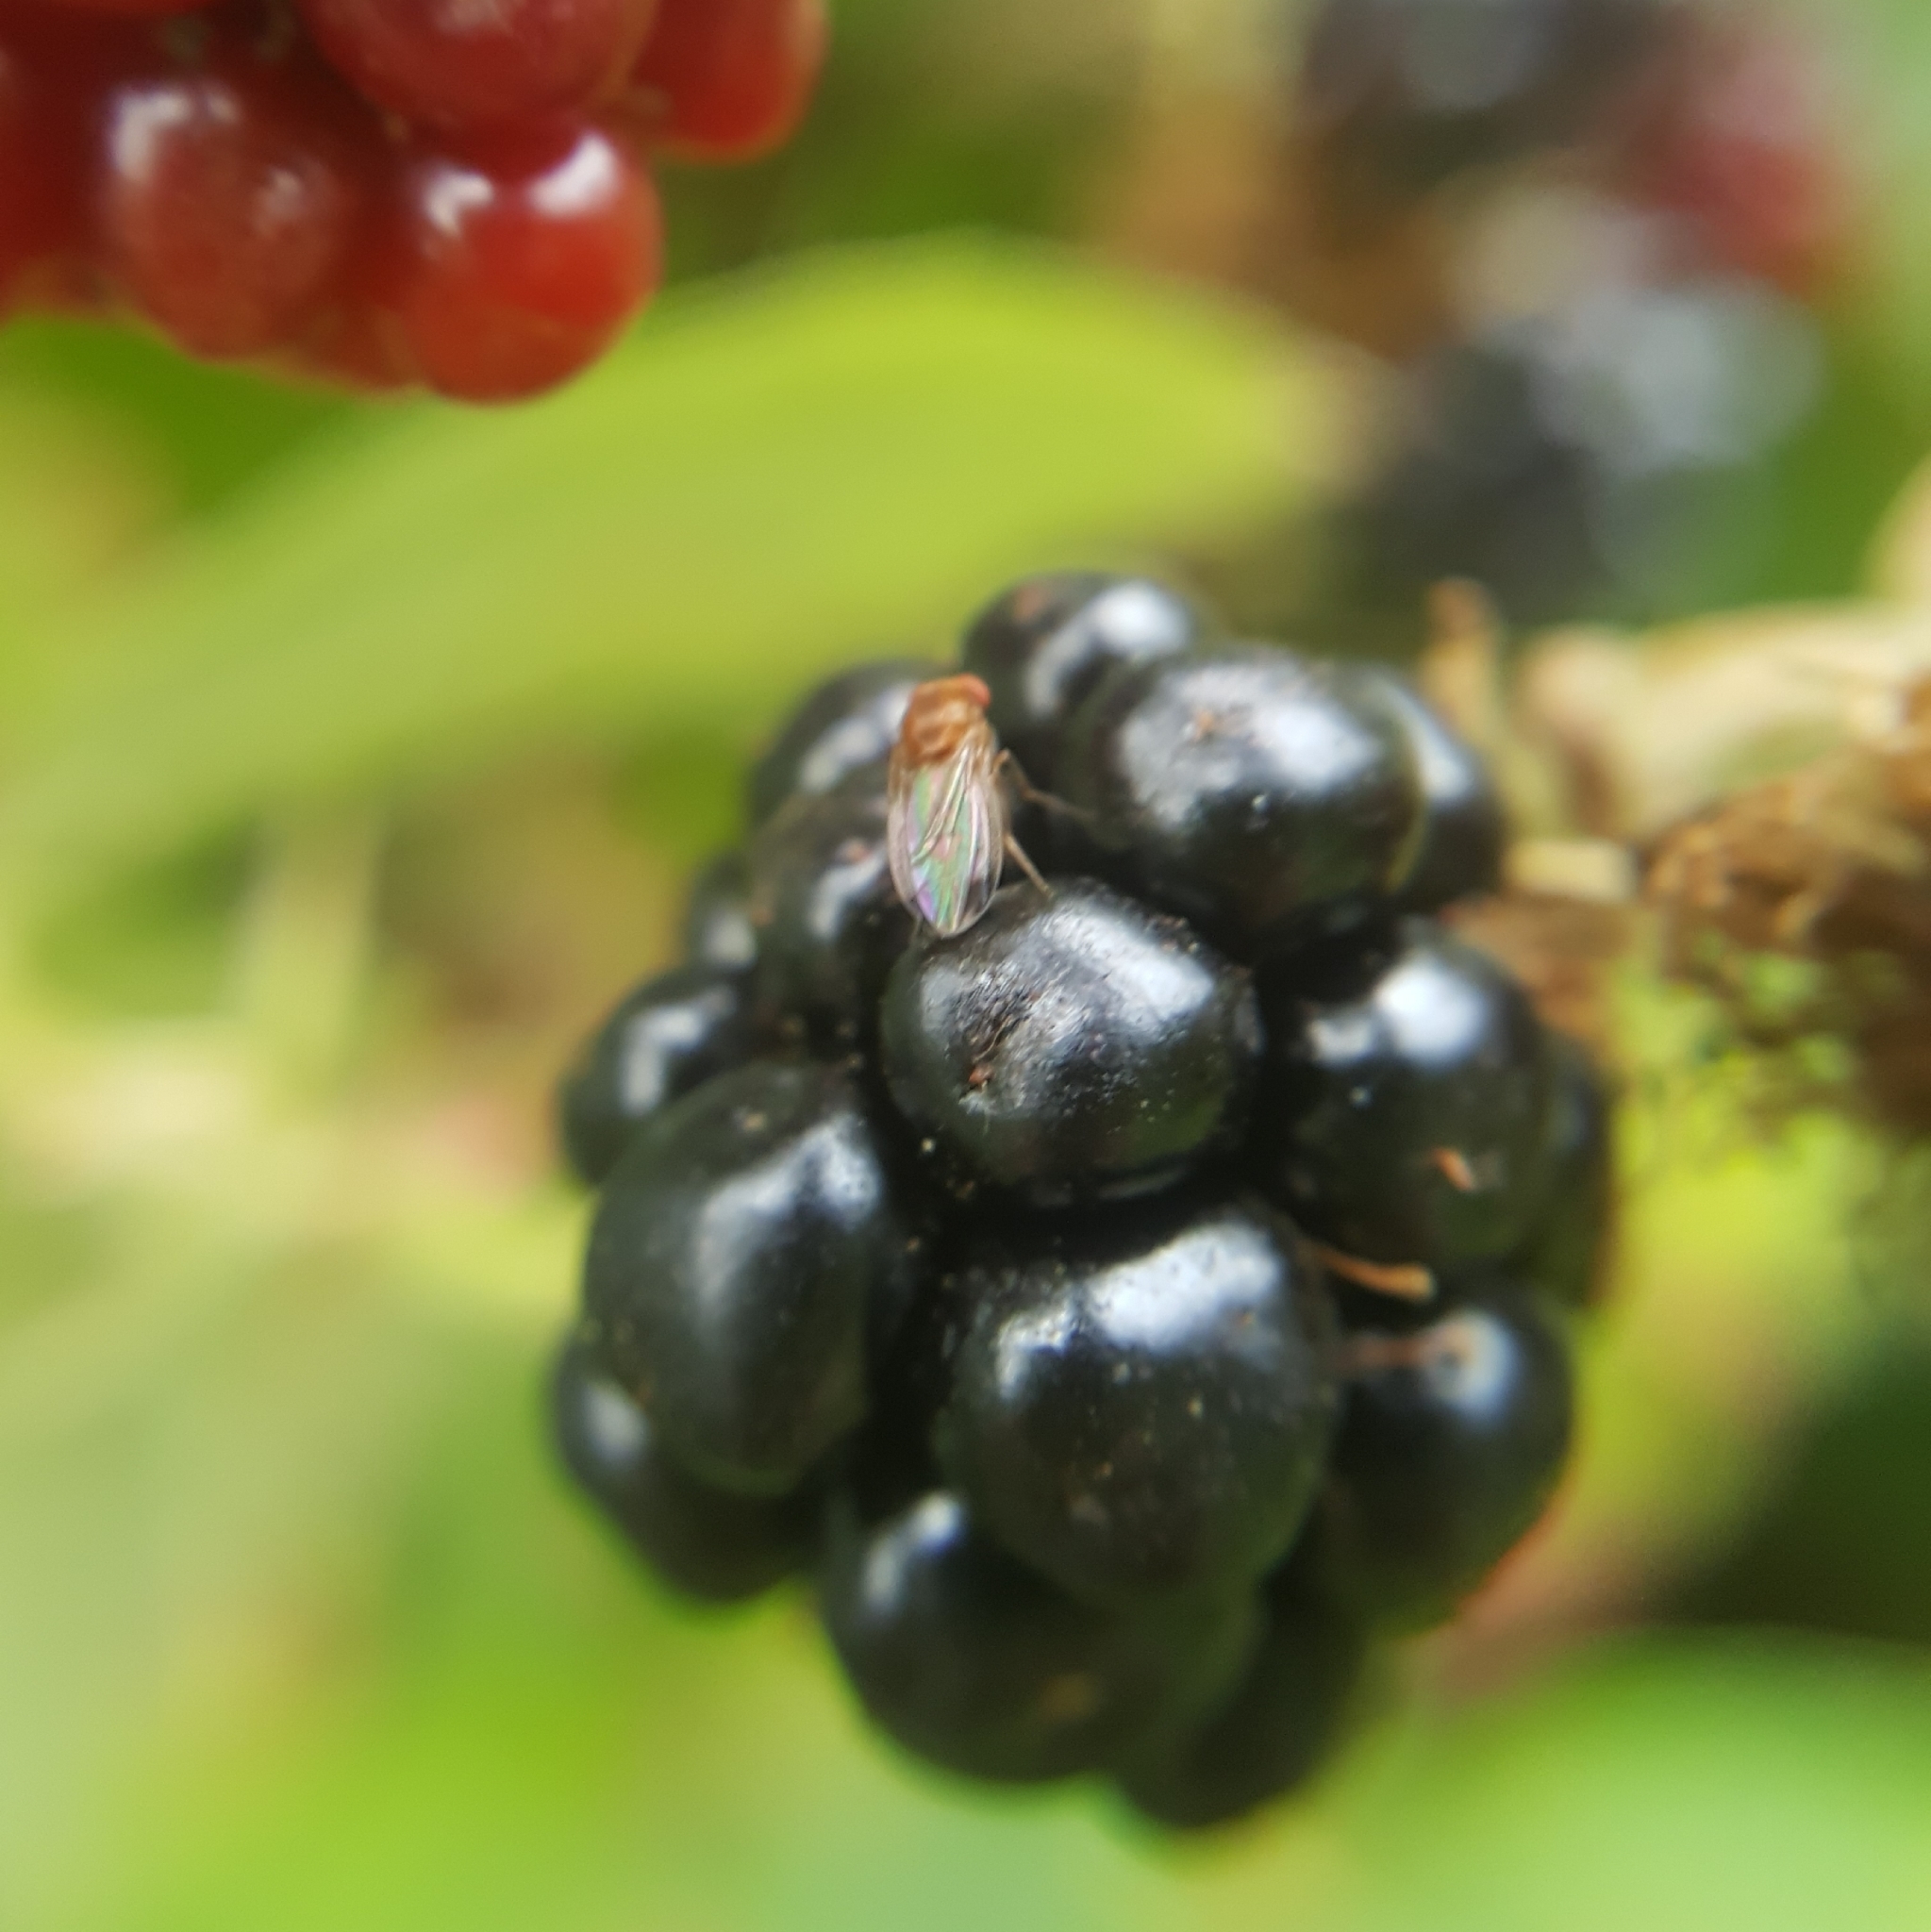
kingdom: Animalia
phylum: Arthropoda
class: Insecta
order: Diptera
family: Drosophilidae
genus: Drosophila
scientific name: Drosophila suzukii
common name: Spotted-wing drosophila
